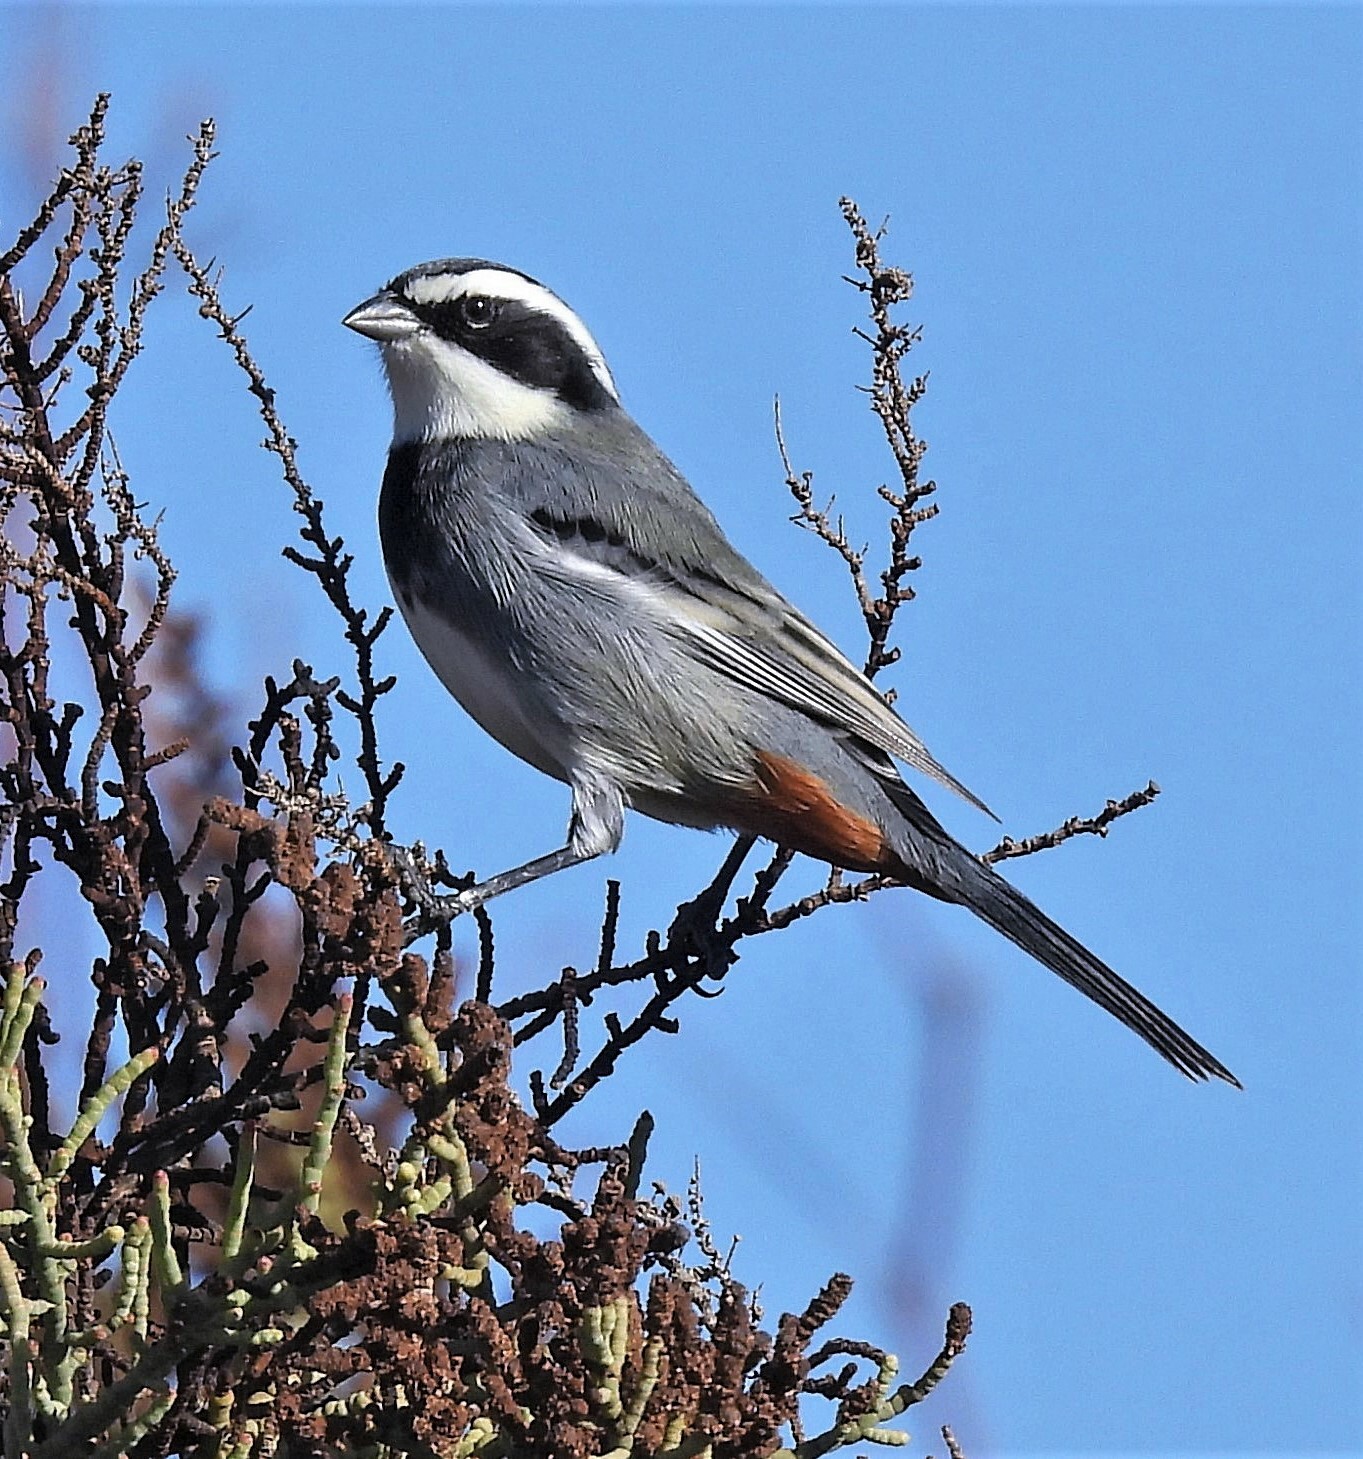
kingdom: Animalia
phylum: Chordata
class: Aves
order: Passeriformes
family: Thraupidae
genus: Microspingus
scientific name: Microspingus torquatus
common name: Ringed warbling-finch
